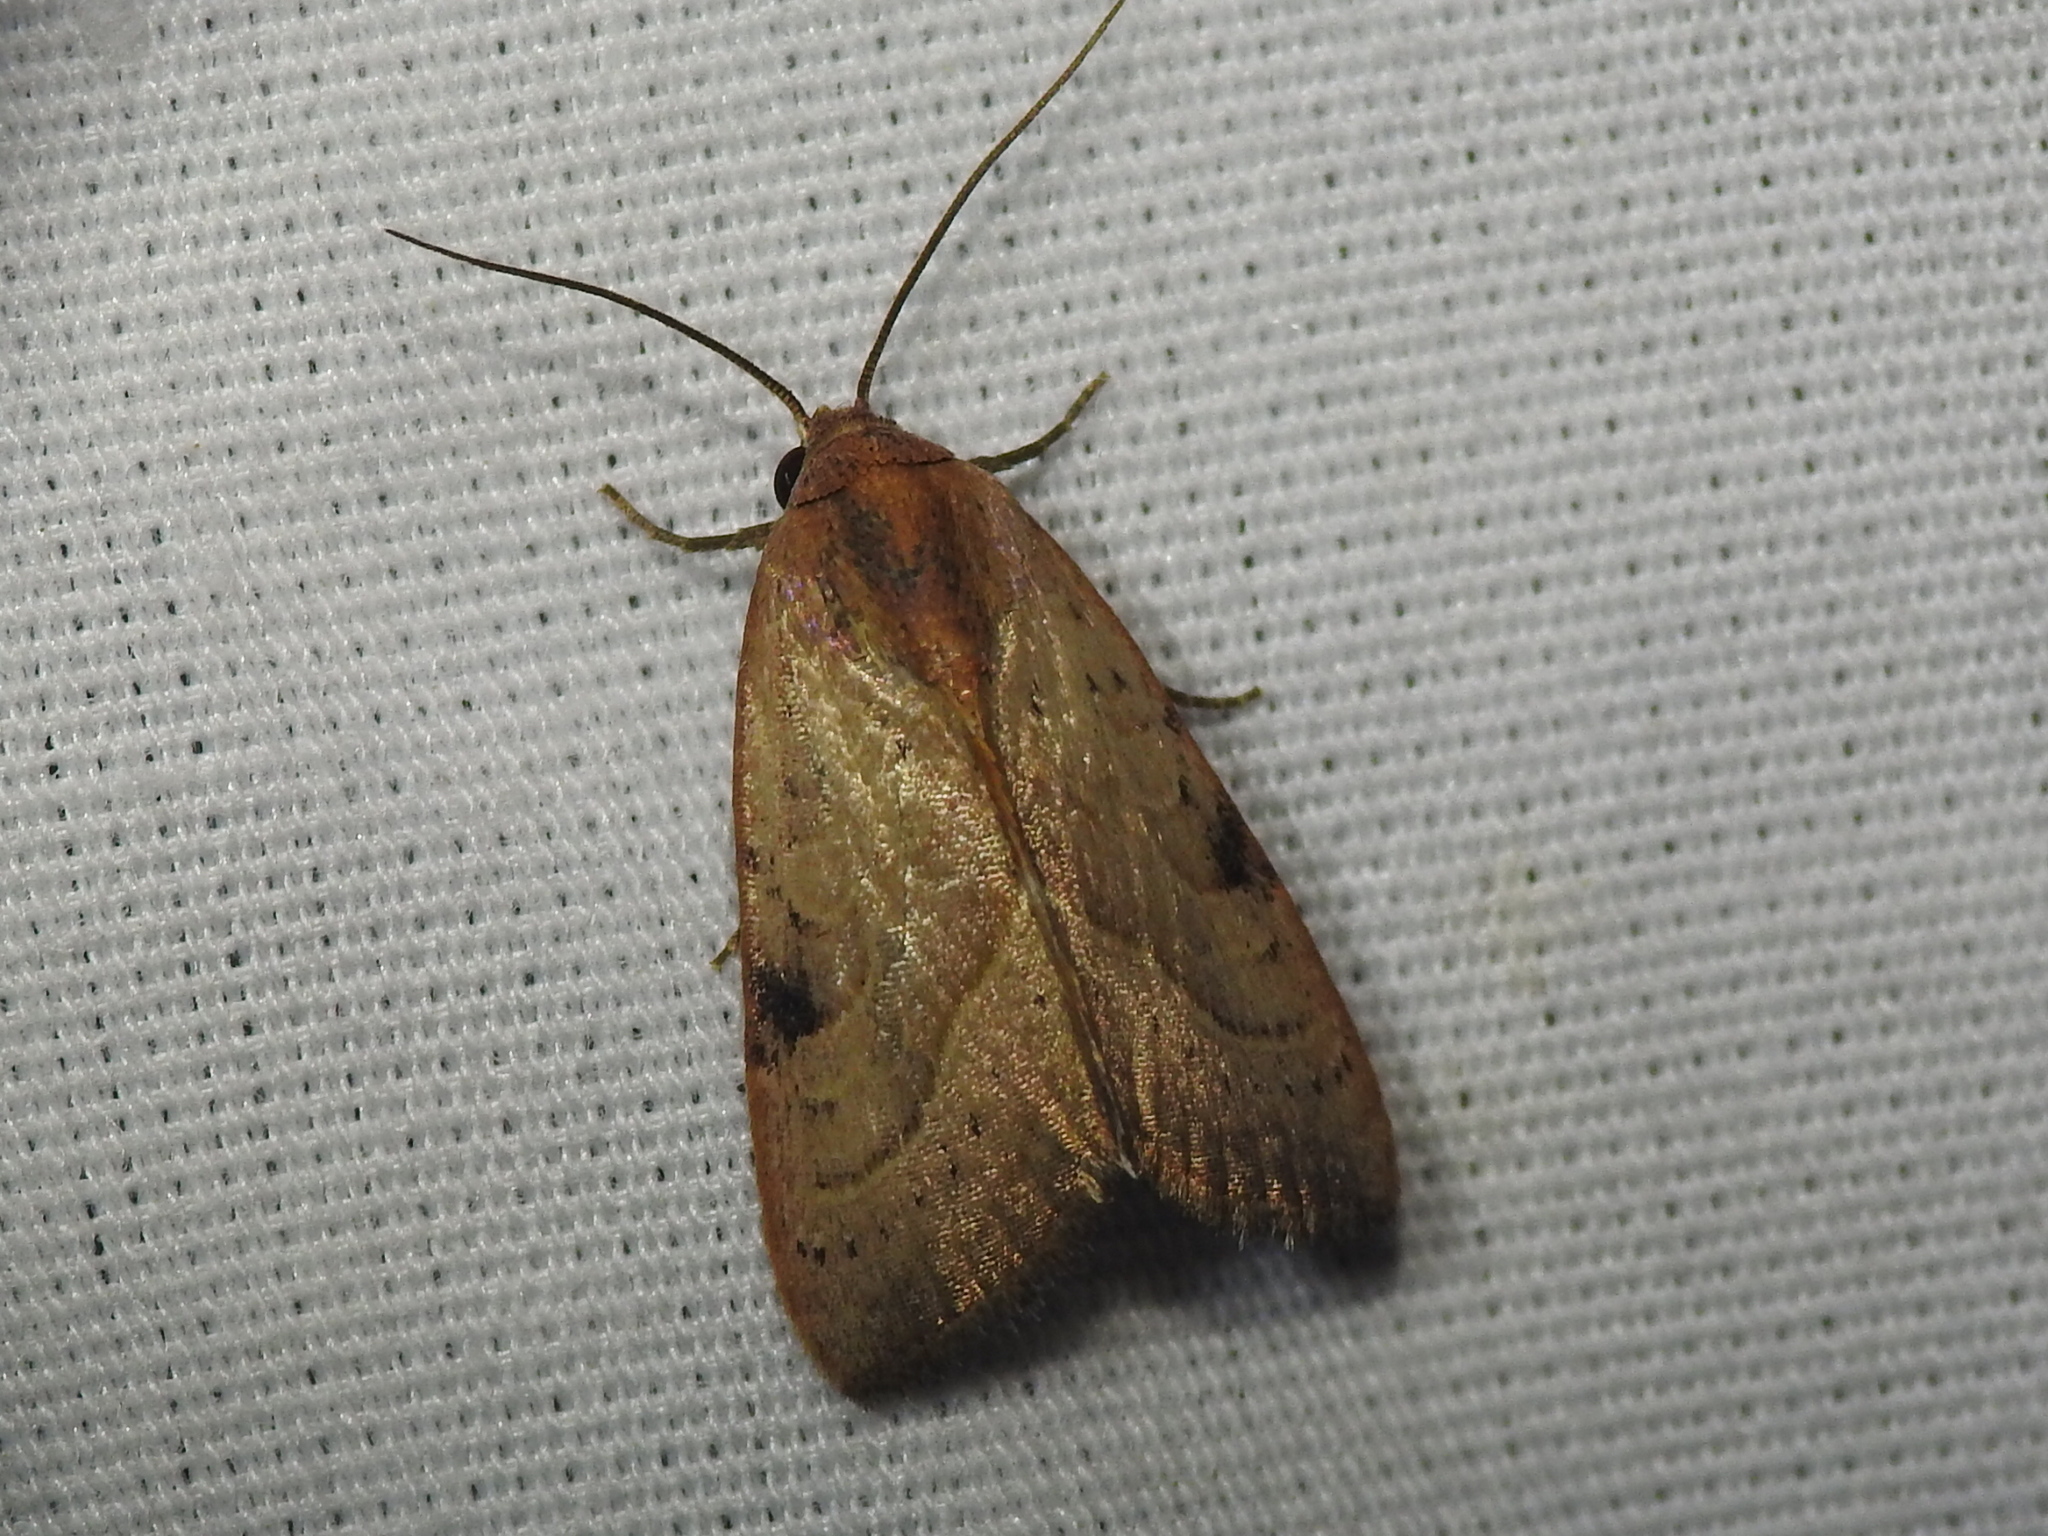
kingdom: Animalia
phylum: Arthropoda
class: Insecta
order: Lepidoptera
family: Noctuidae
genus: Galgula
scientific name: Galgula partita
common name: Wedgeling
